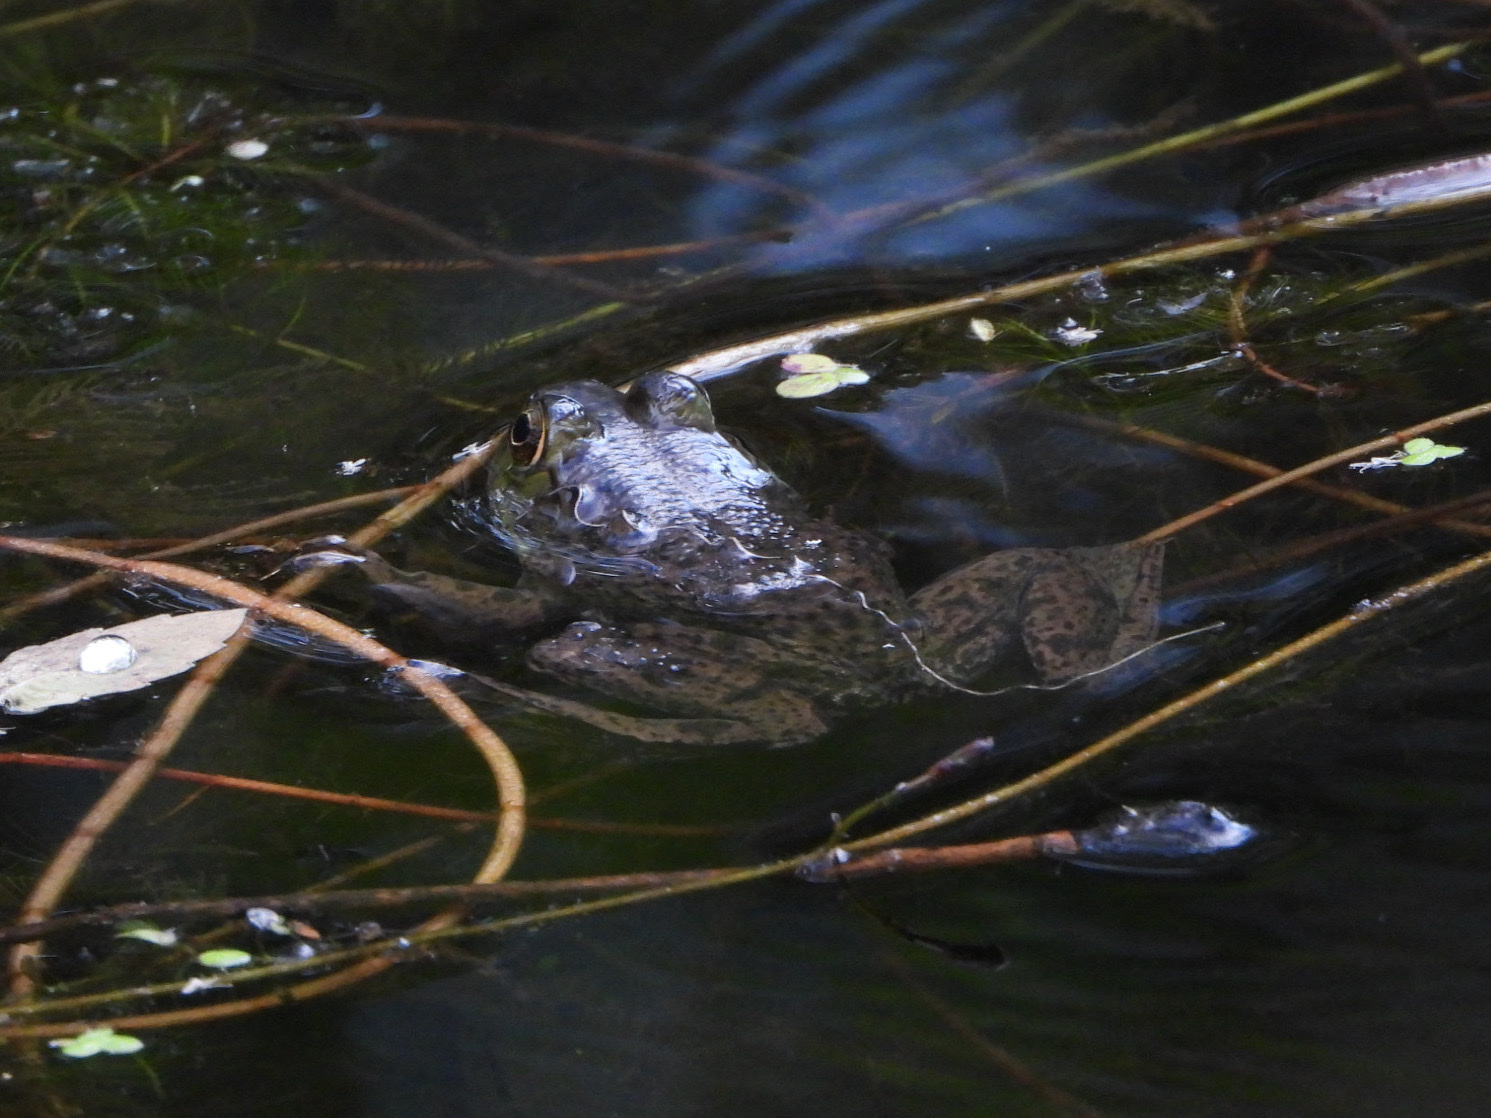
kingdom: Animalia
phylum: Chordata
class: Amphibia
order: Anura
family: Ranidae
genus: Lithobates
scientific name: Lithobates catesbeianus
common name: American bullfrog
